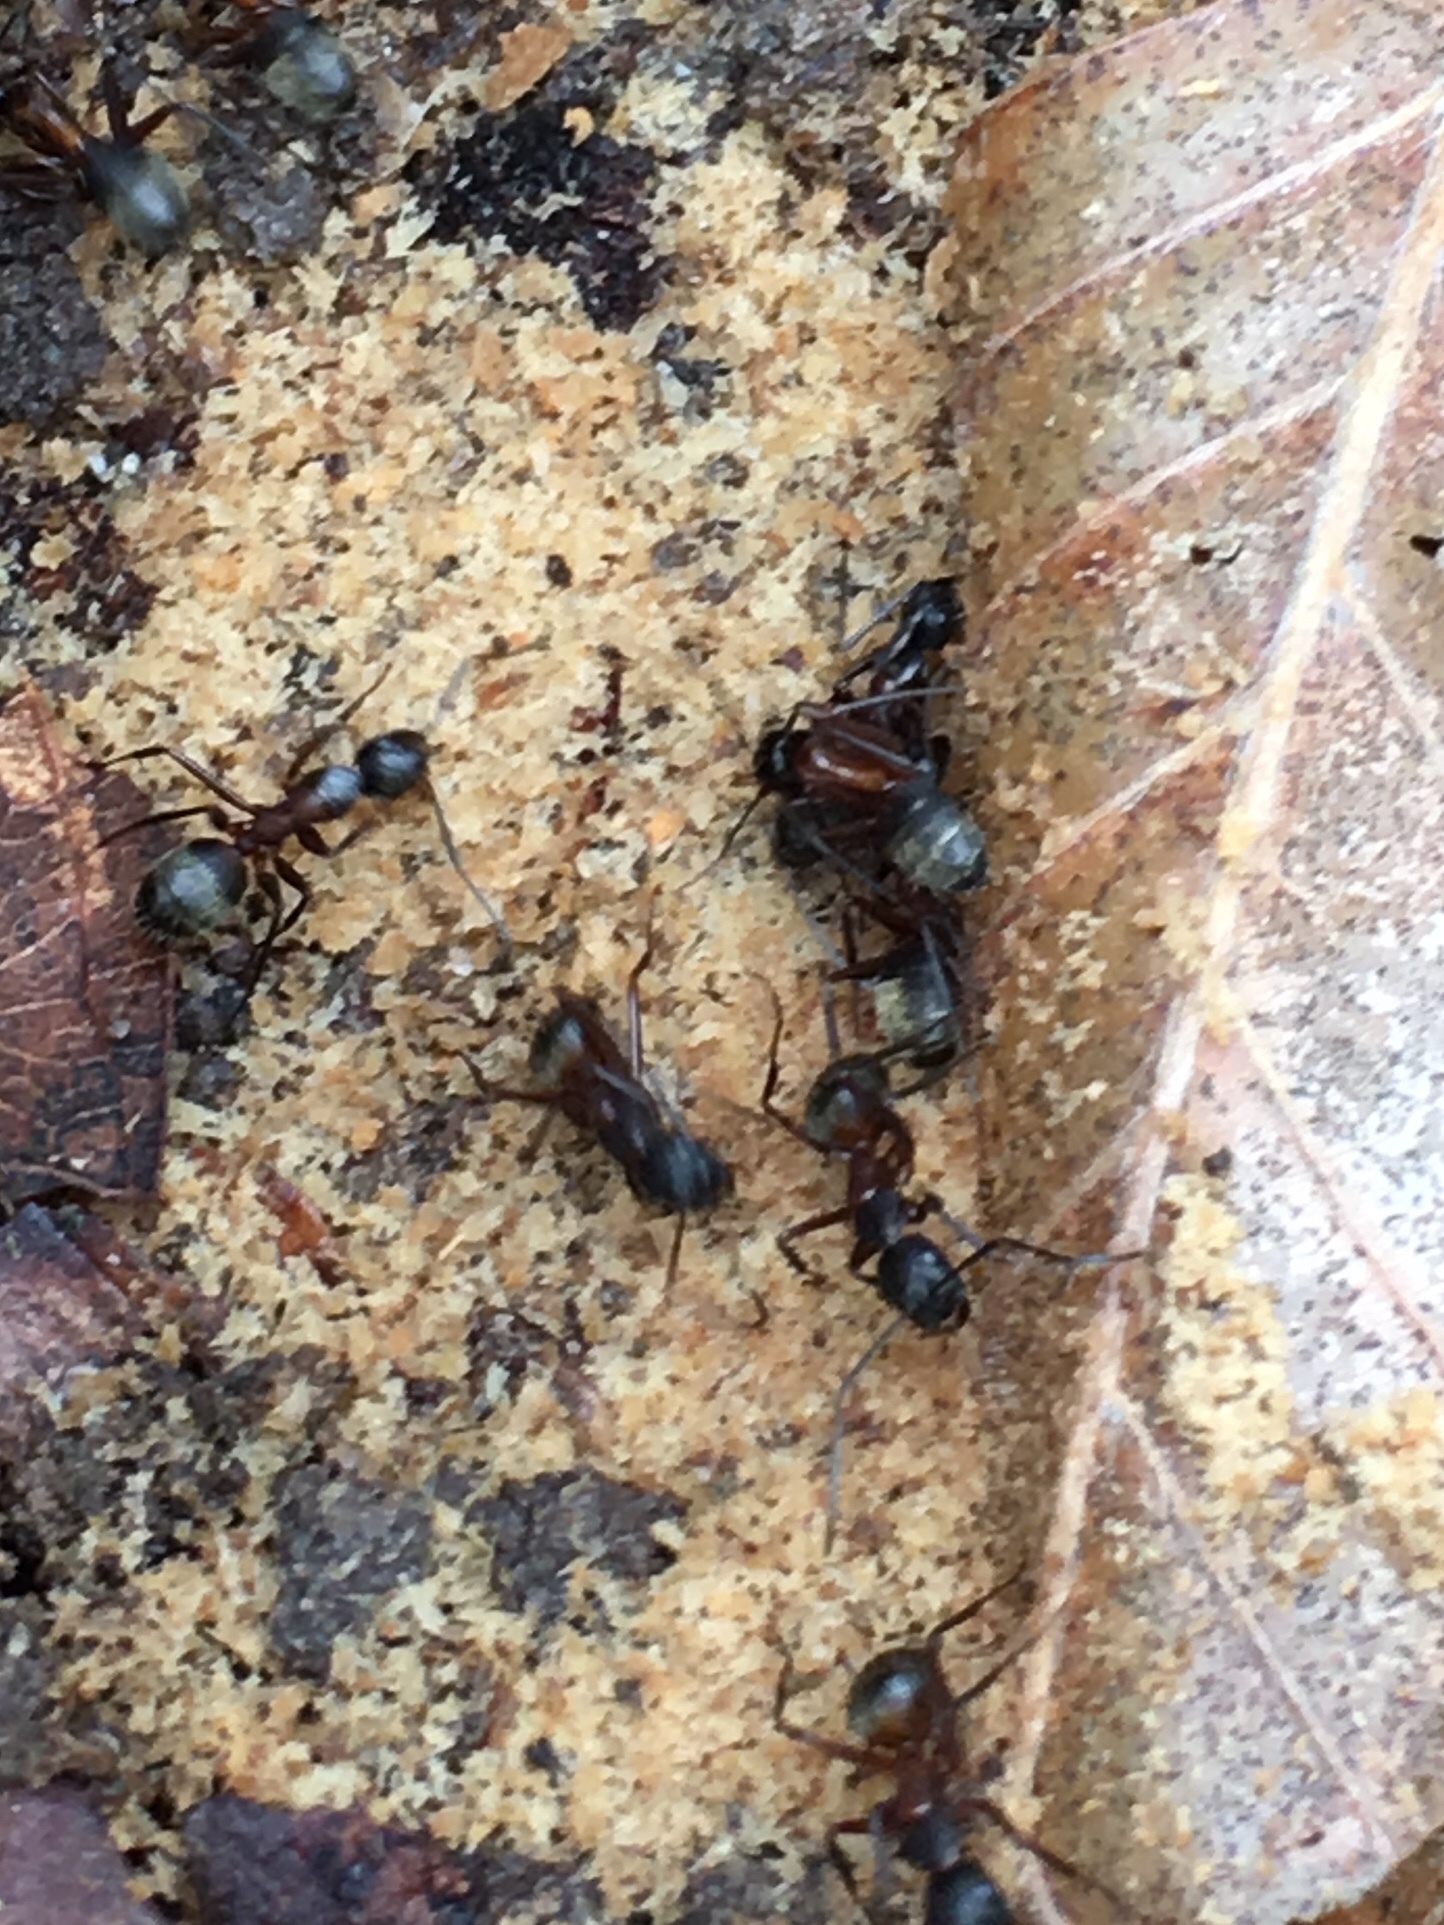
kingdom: Animalia
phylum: Arthropoda
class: Insecta
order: Hymenoptera
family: Formicidae
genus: Camponotus
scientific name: Camponotus chromaiodes
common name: Red carpenter ant
